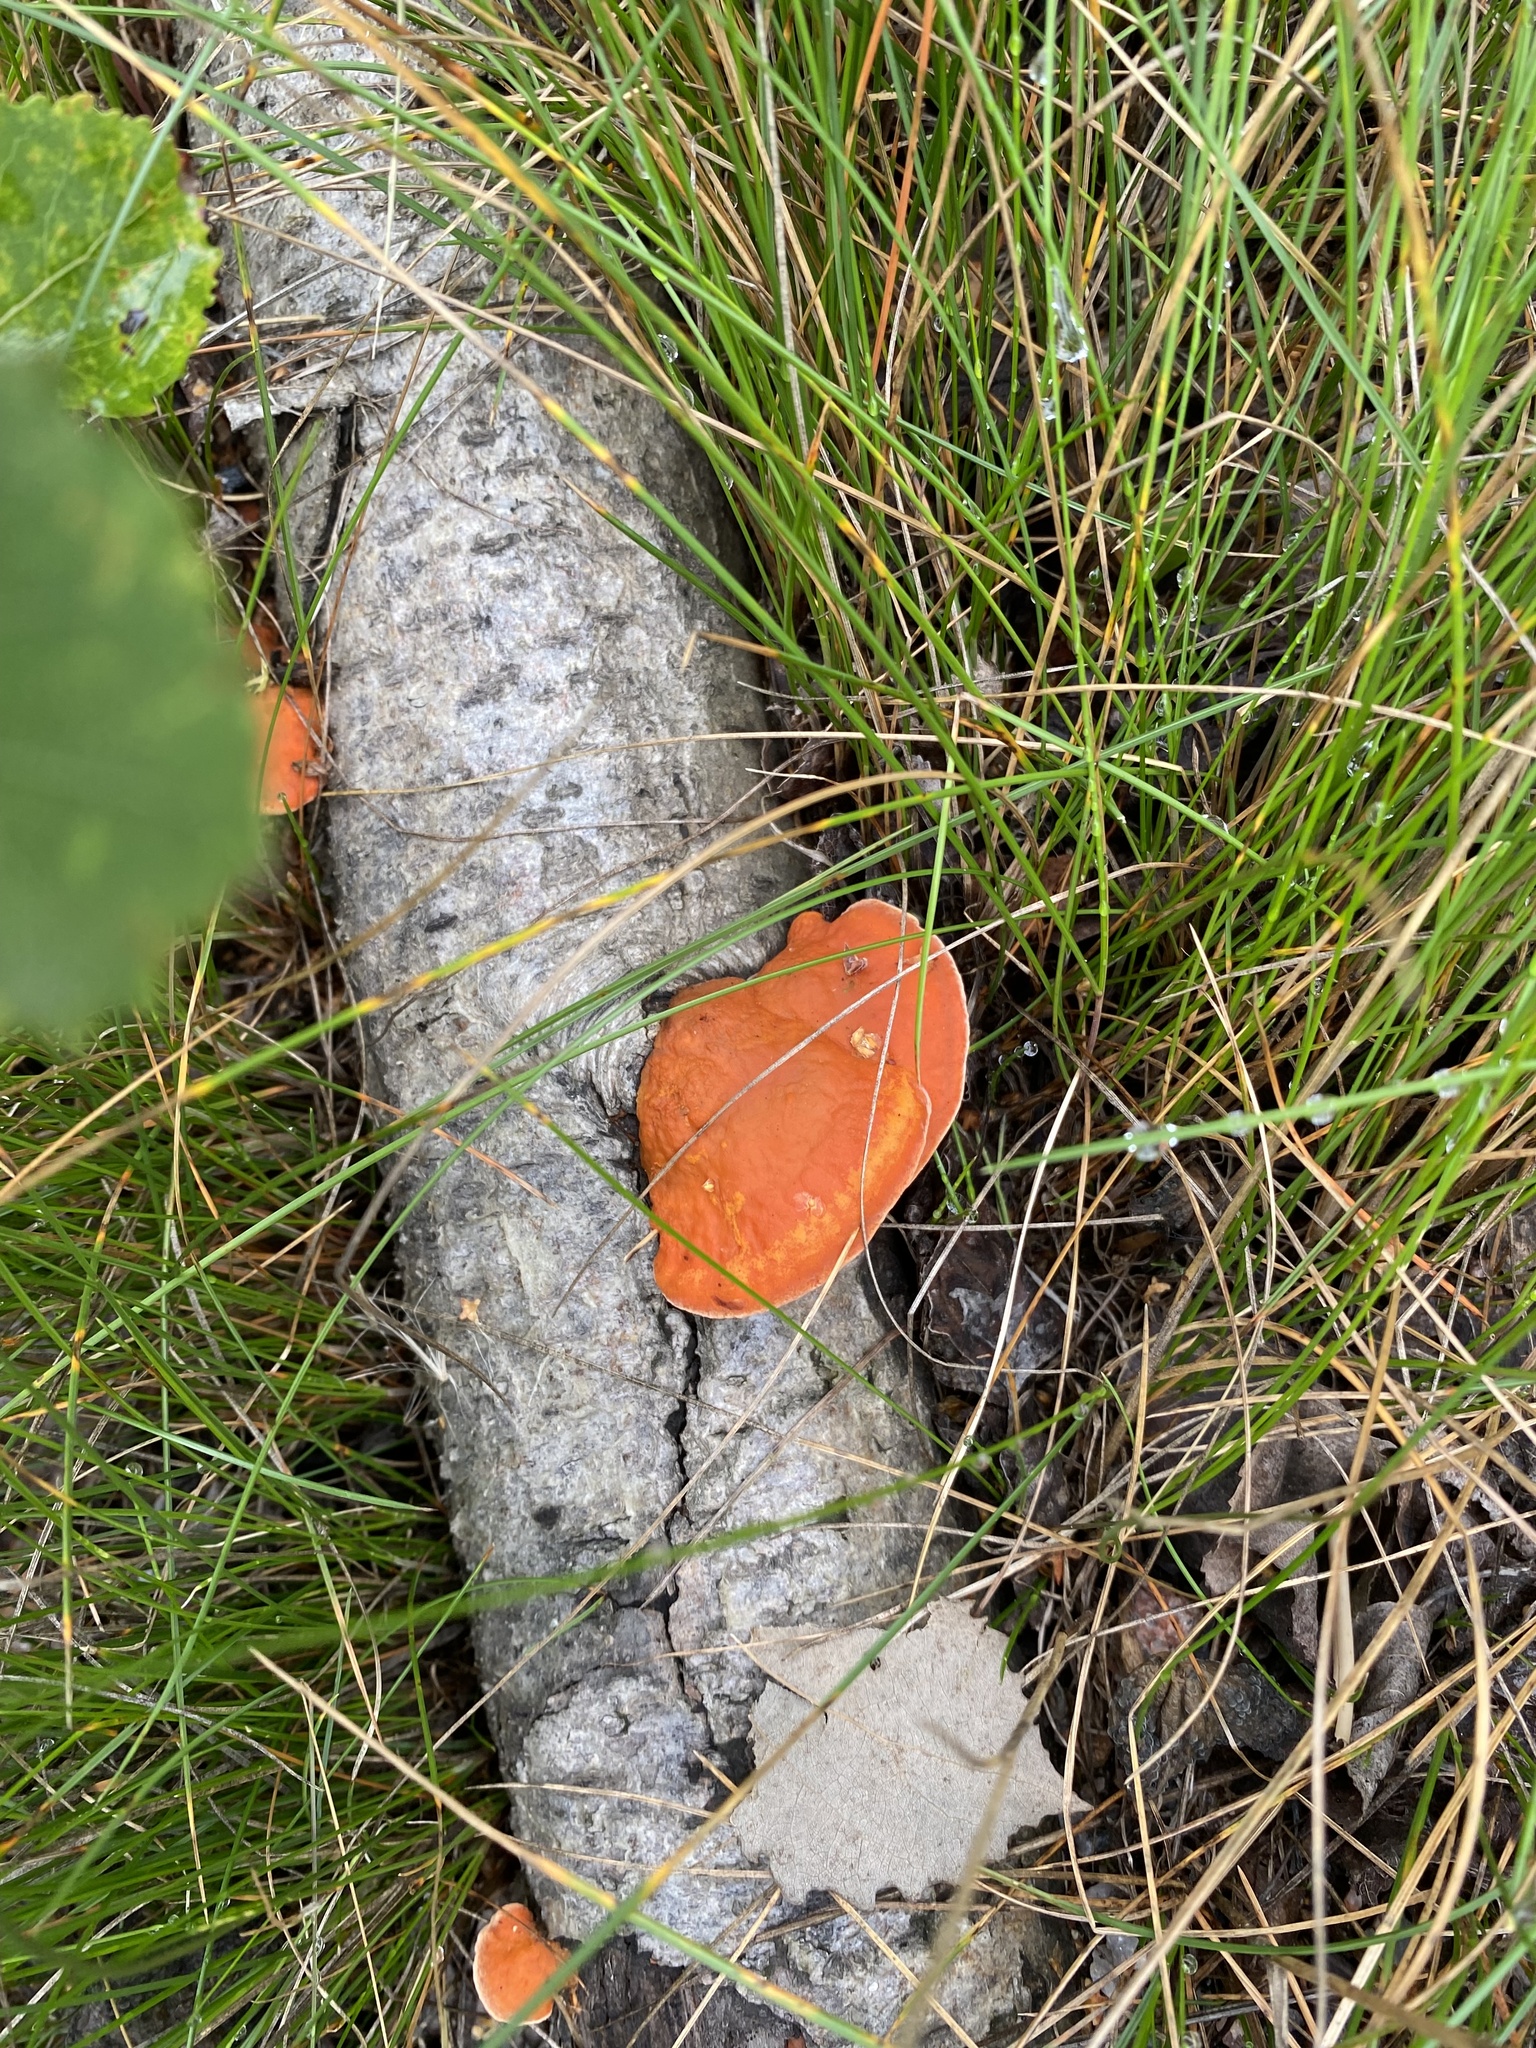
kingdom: Fungi
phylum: Basidiomycota
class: Agaricomycetes
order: Polyporales
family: Polyporaceae
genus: Trametes
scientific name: Trametes cinnabarina
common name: Northern cinnabar polypore
